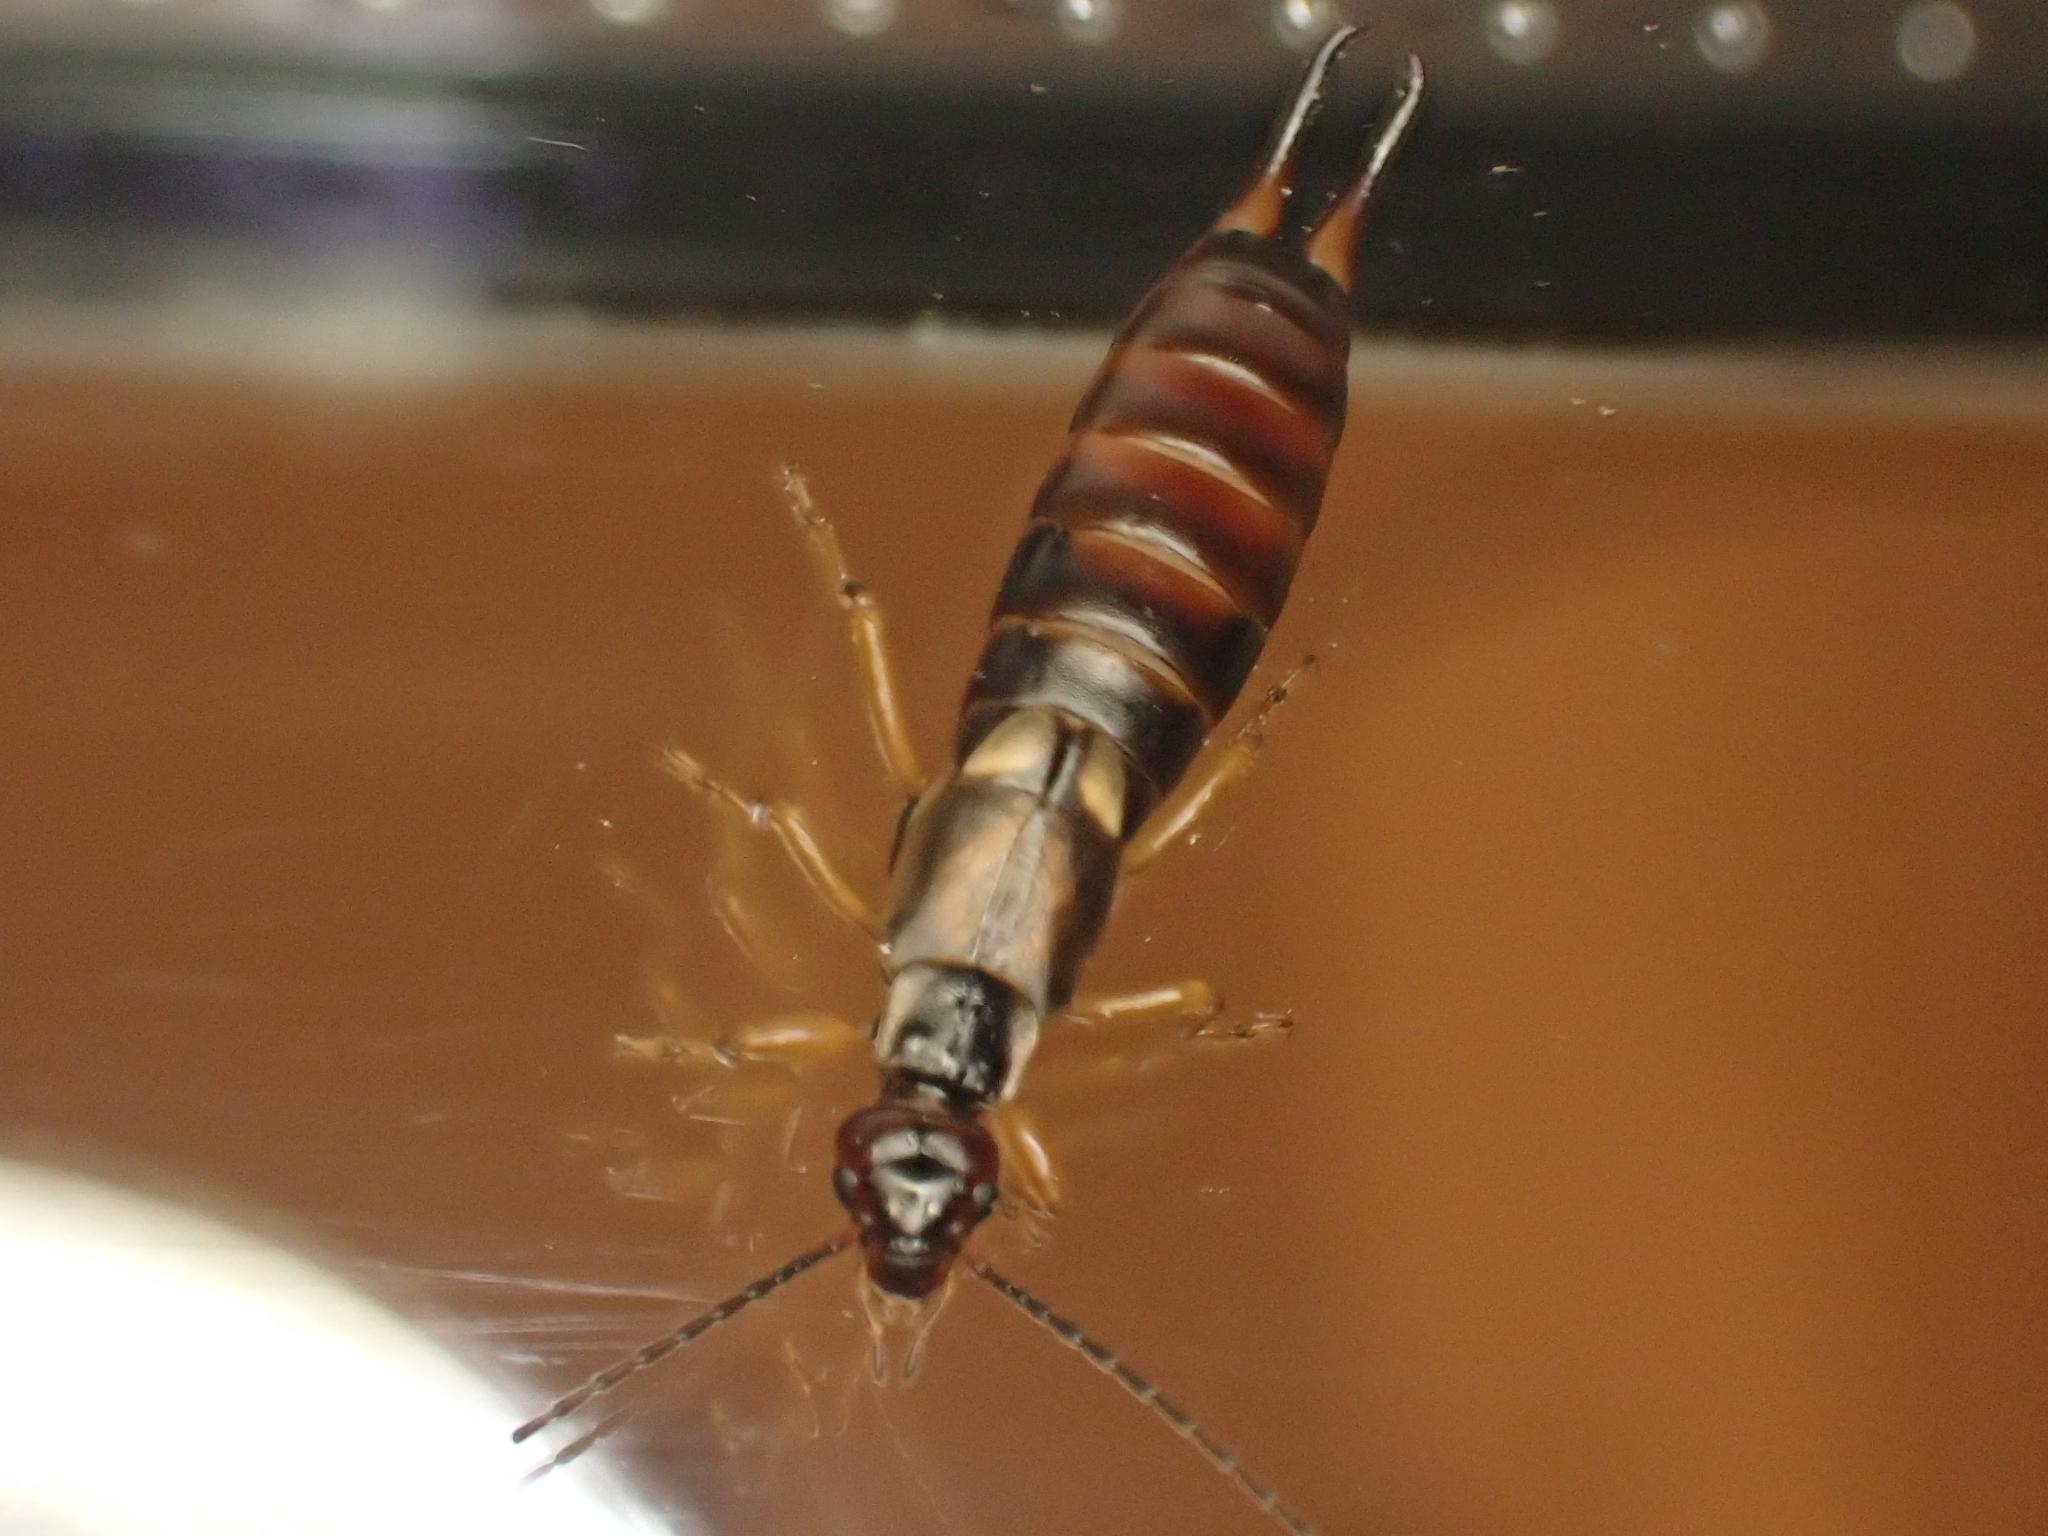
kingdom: Animalia
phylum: Arthropoda
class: Insecta
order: Dermaptera
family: Forficulidae
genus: Forficula
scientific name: Forficula
